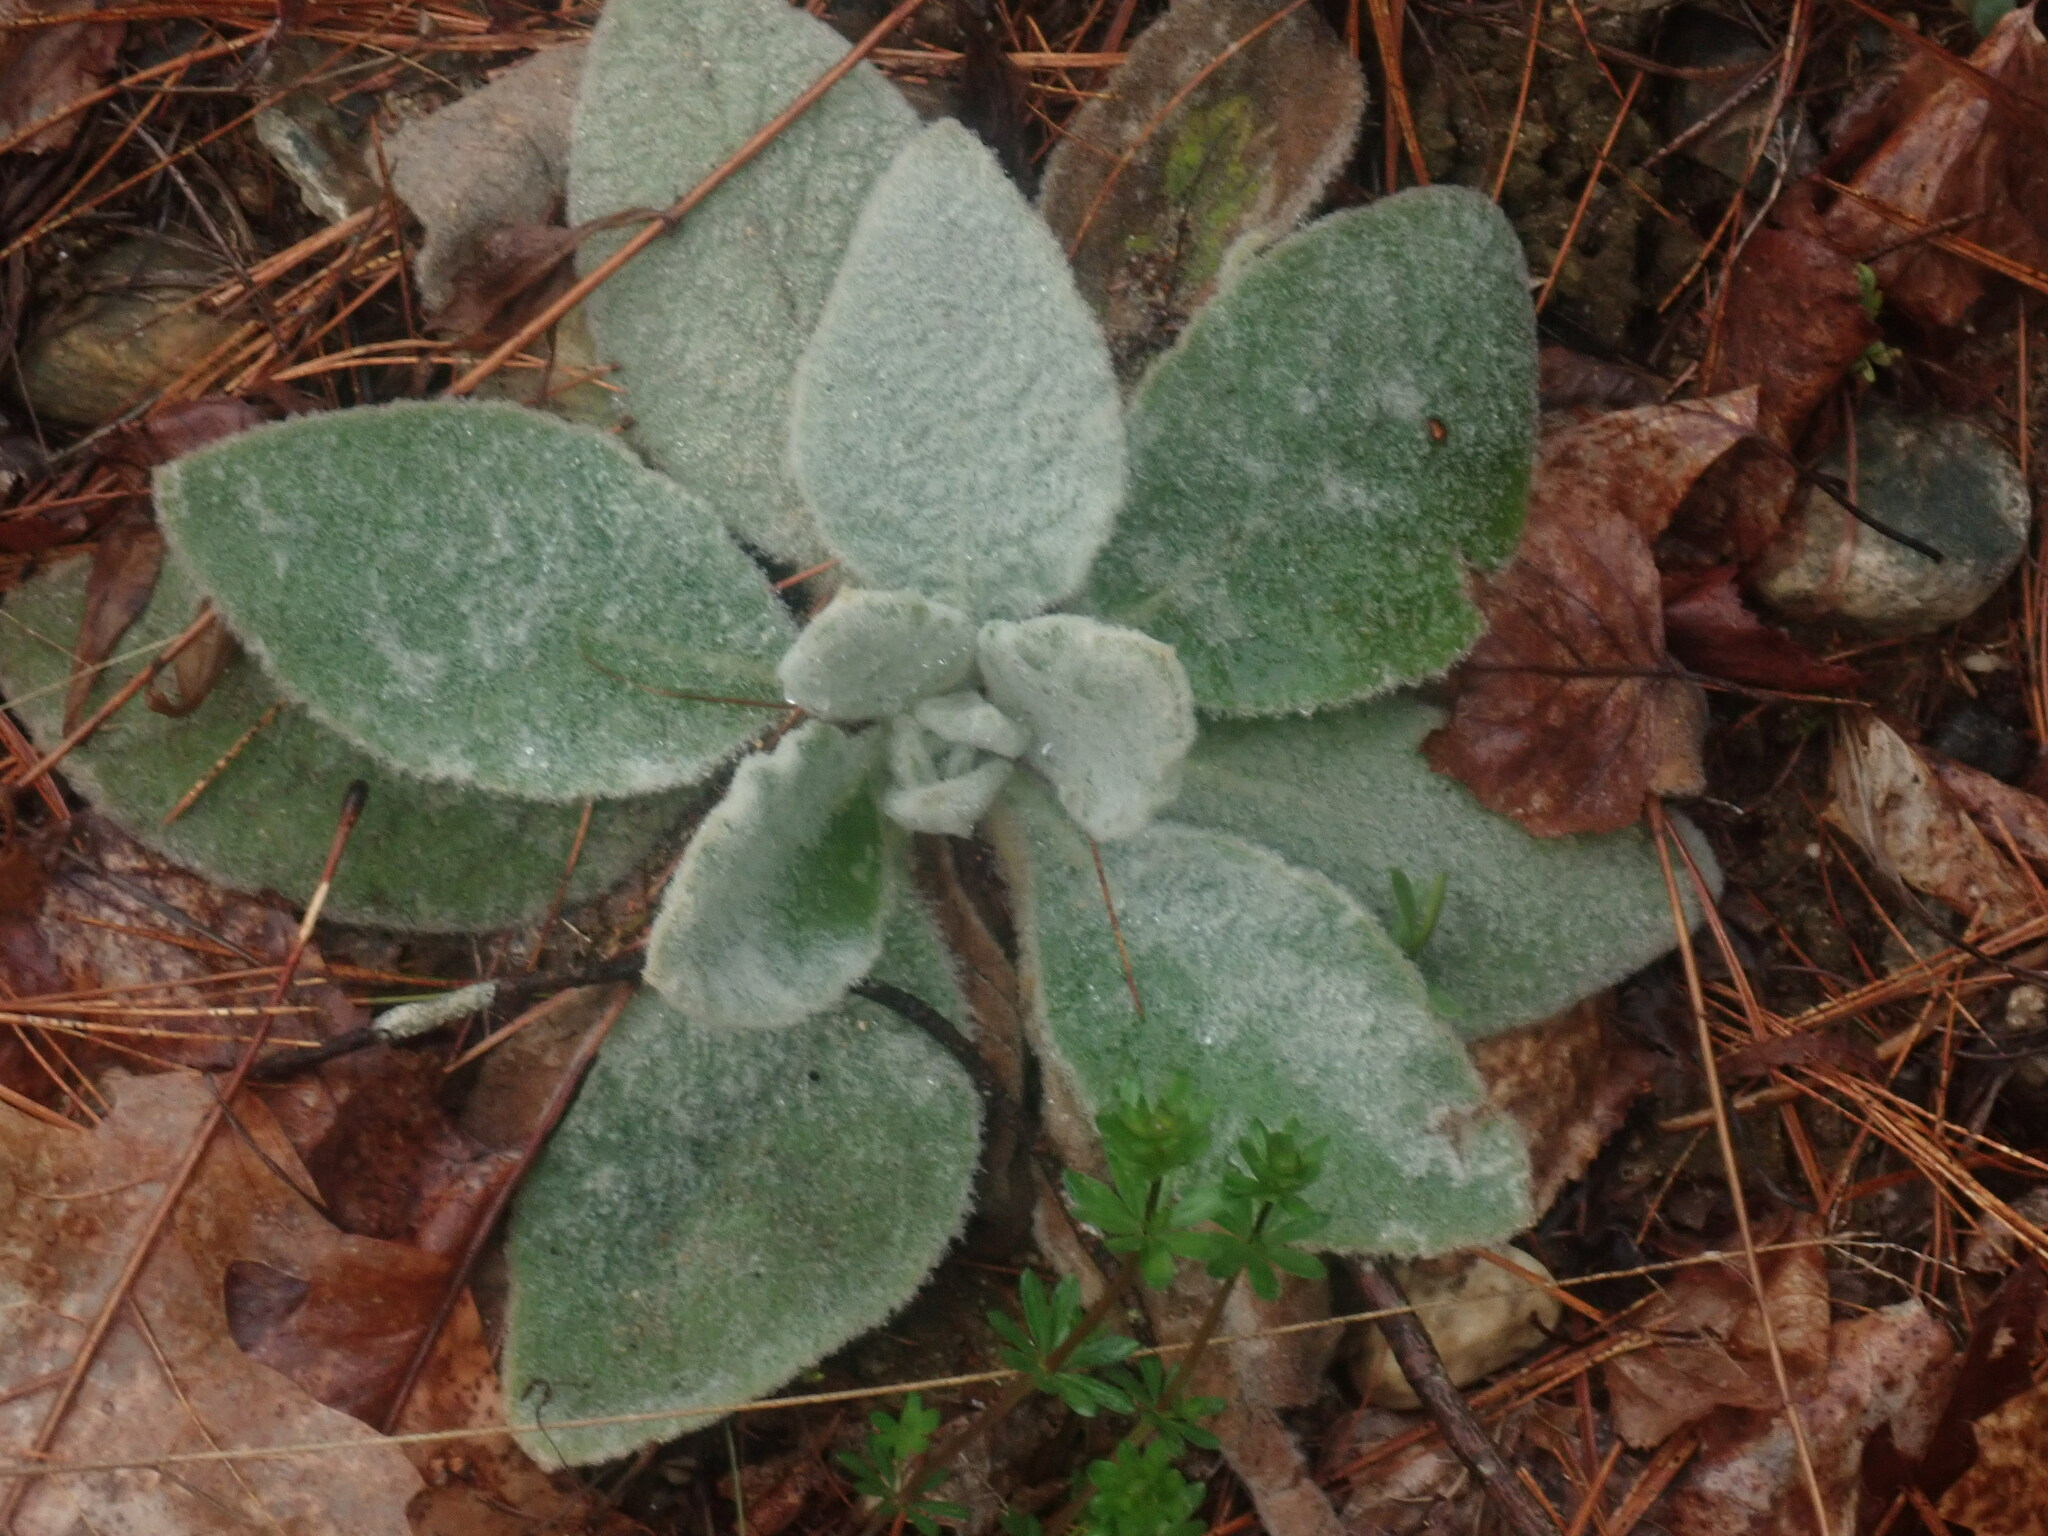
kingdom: Plantae
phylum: Tracheophyta
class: Magnoliopsida
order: Lamiales
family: Scrophulariaceae
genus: Verbascum
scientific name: Verbascum thapsus
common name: Common mullein
